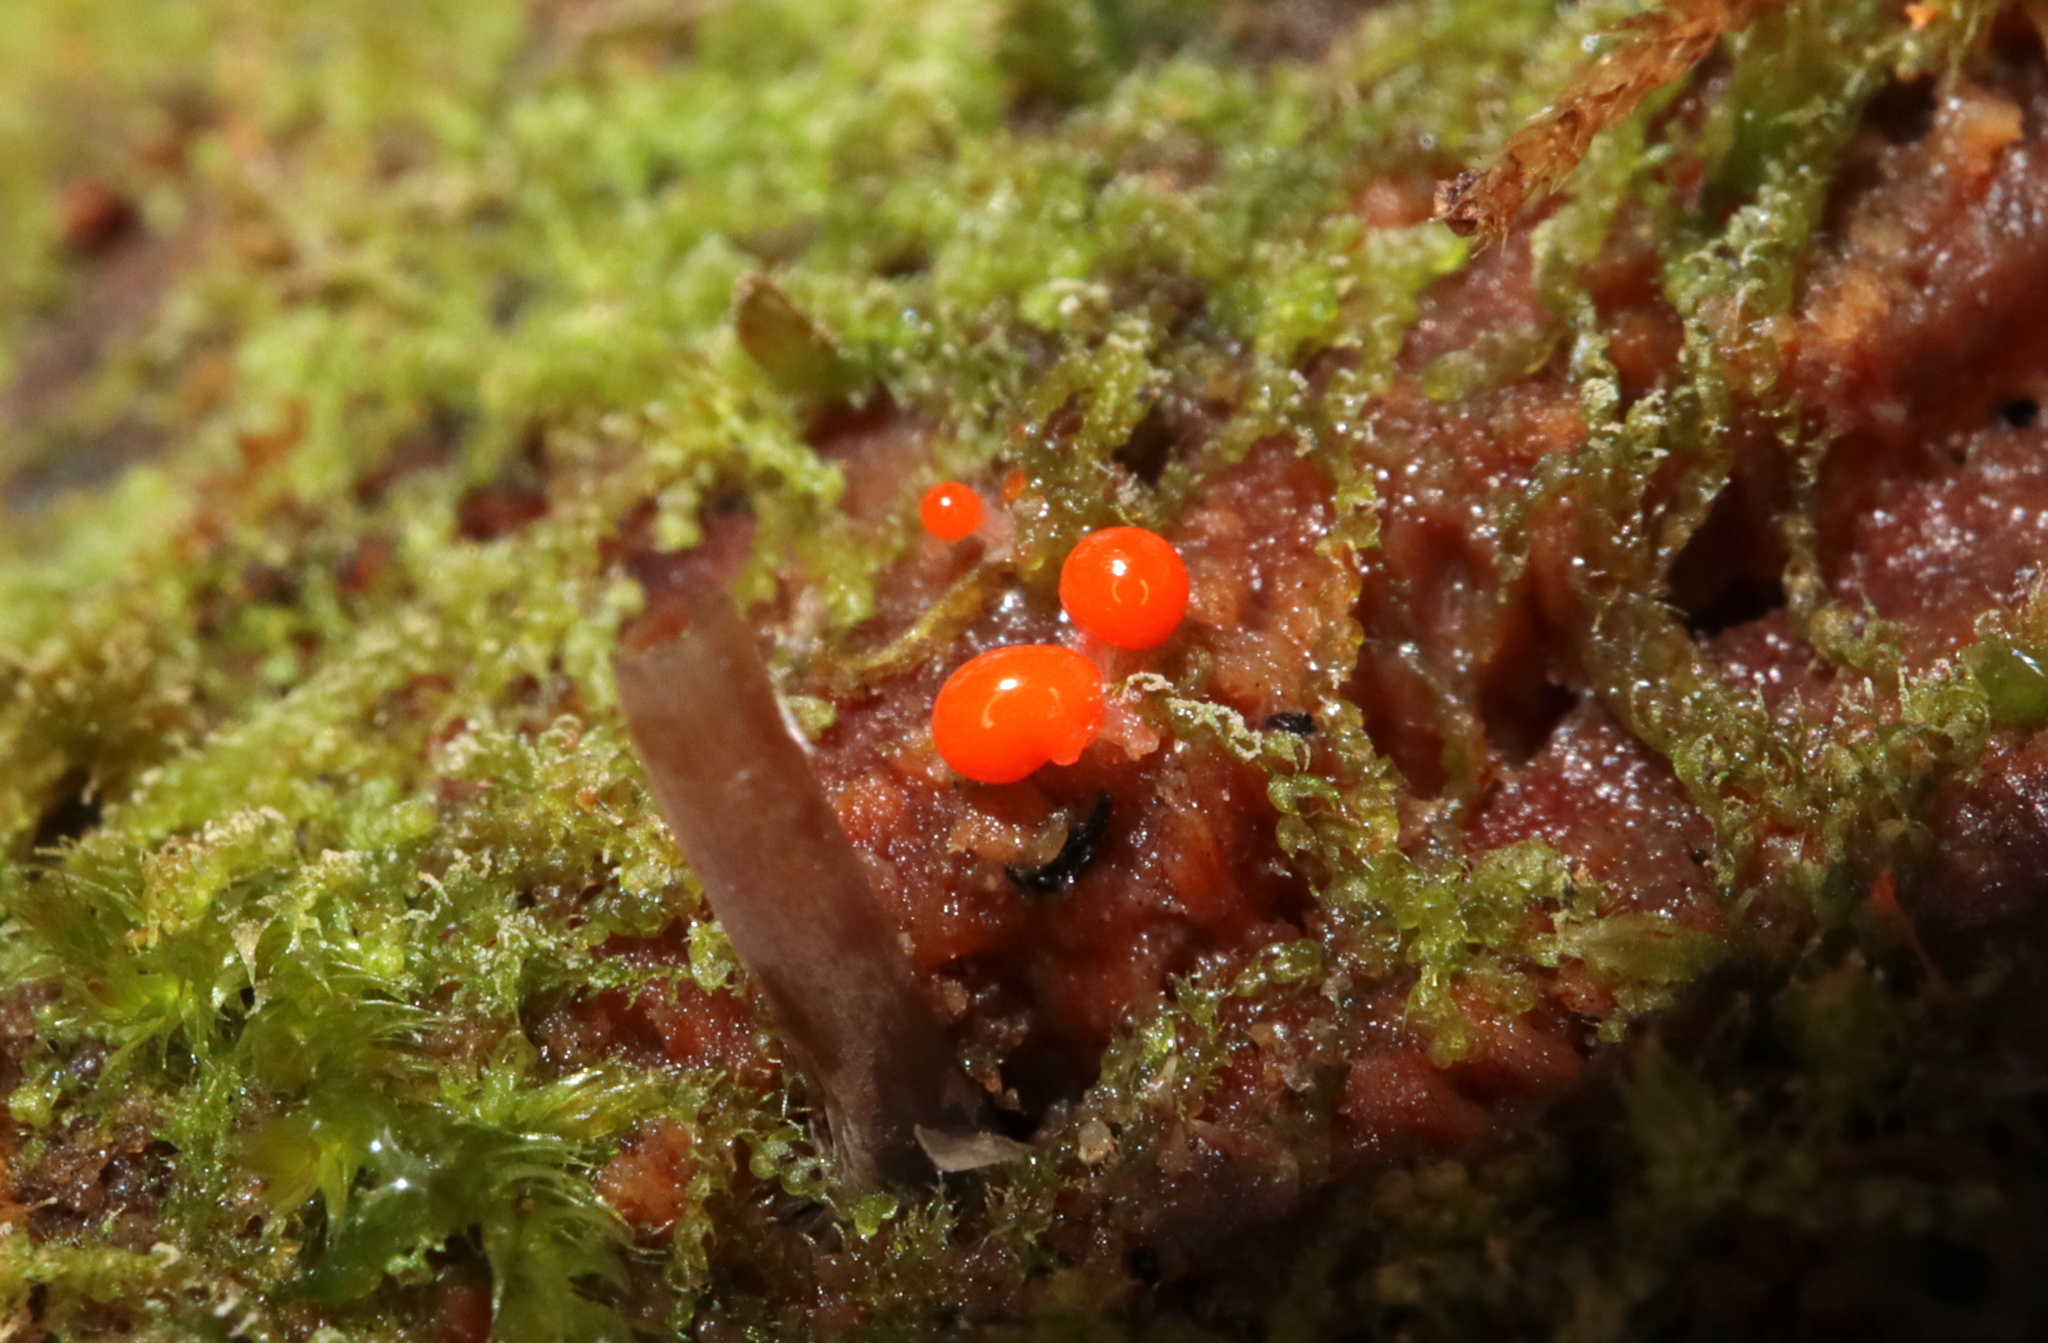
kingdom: Protozoa
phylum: Mycetozoa
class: Myxomycetes
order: Trichiales
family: Arcyriaceae
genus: Hemitrichia
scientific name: Hemitrichia decipiens
